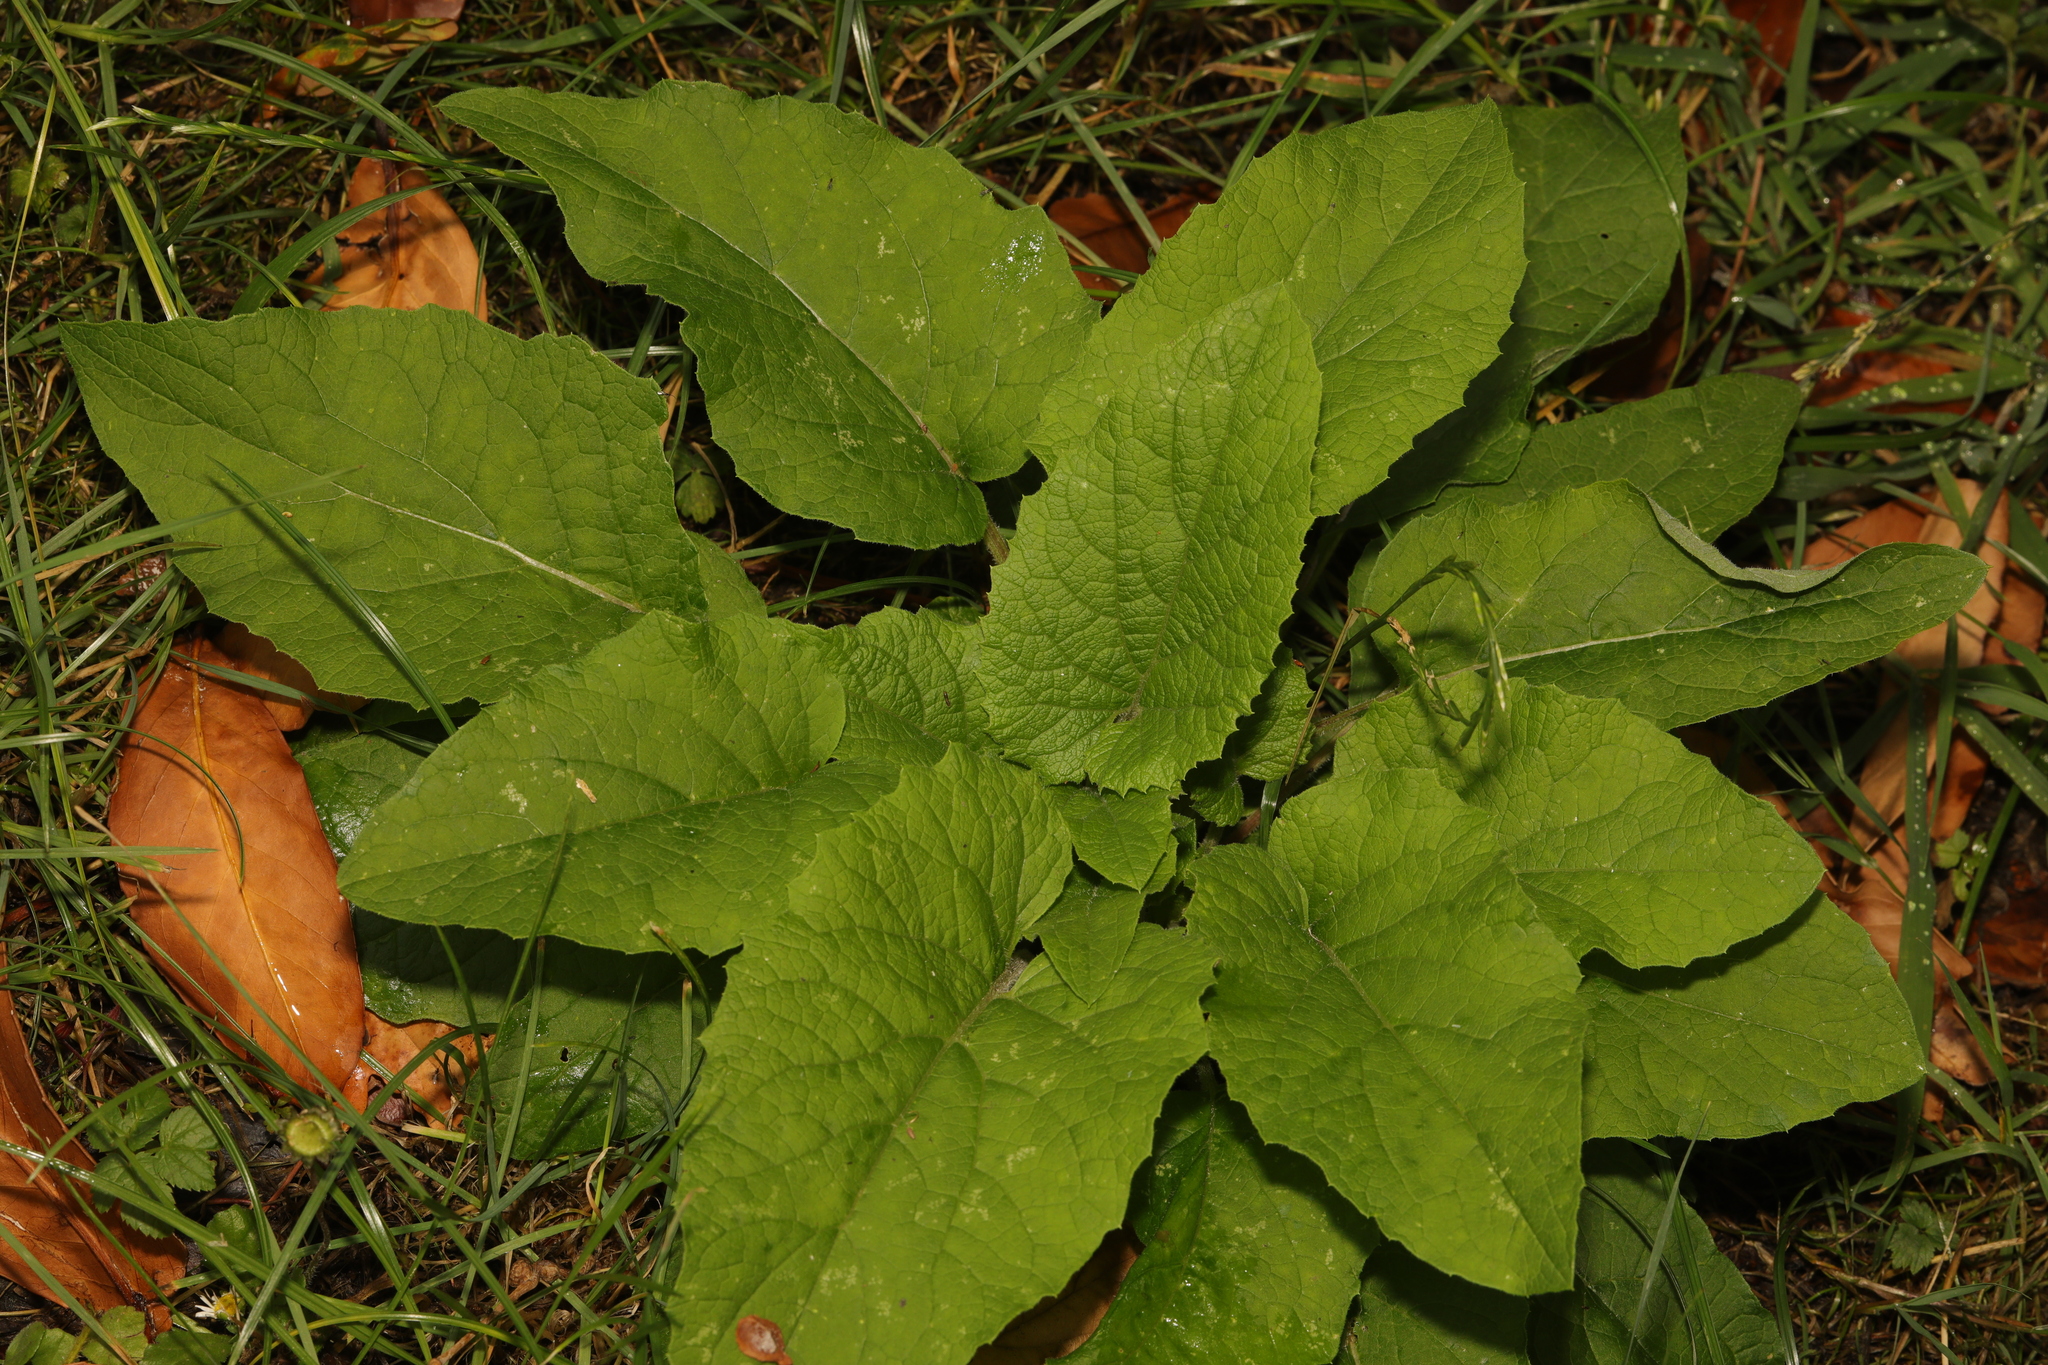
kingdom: Plantae
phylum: Tracheophyta
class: Magnoliopsida
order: Asterales
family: Asteraceae
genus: Arctium
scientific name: Arctium minus
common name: Lesser burdock
